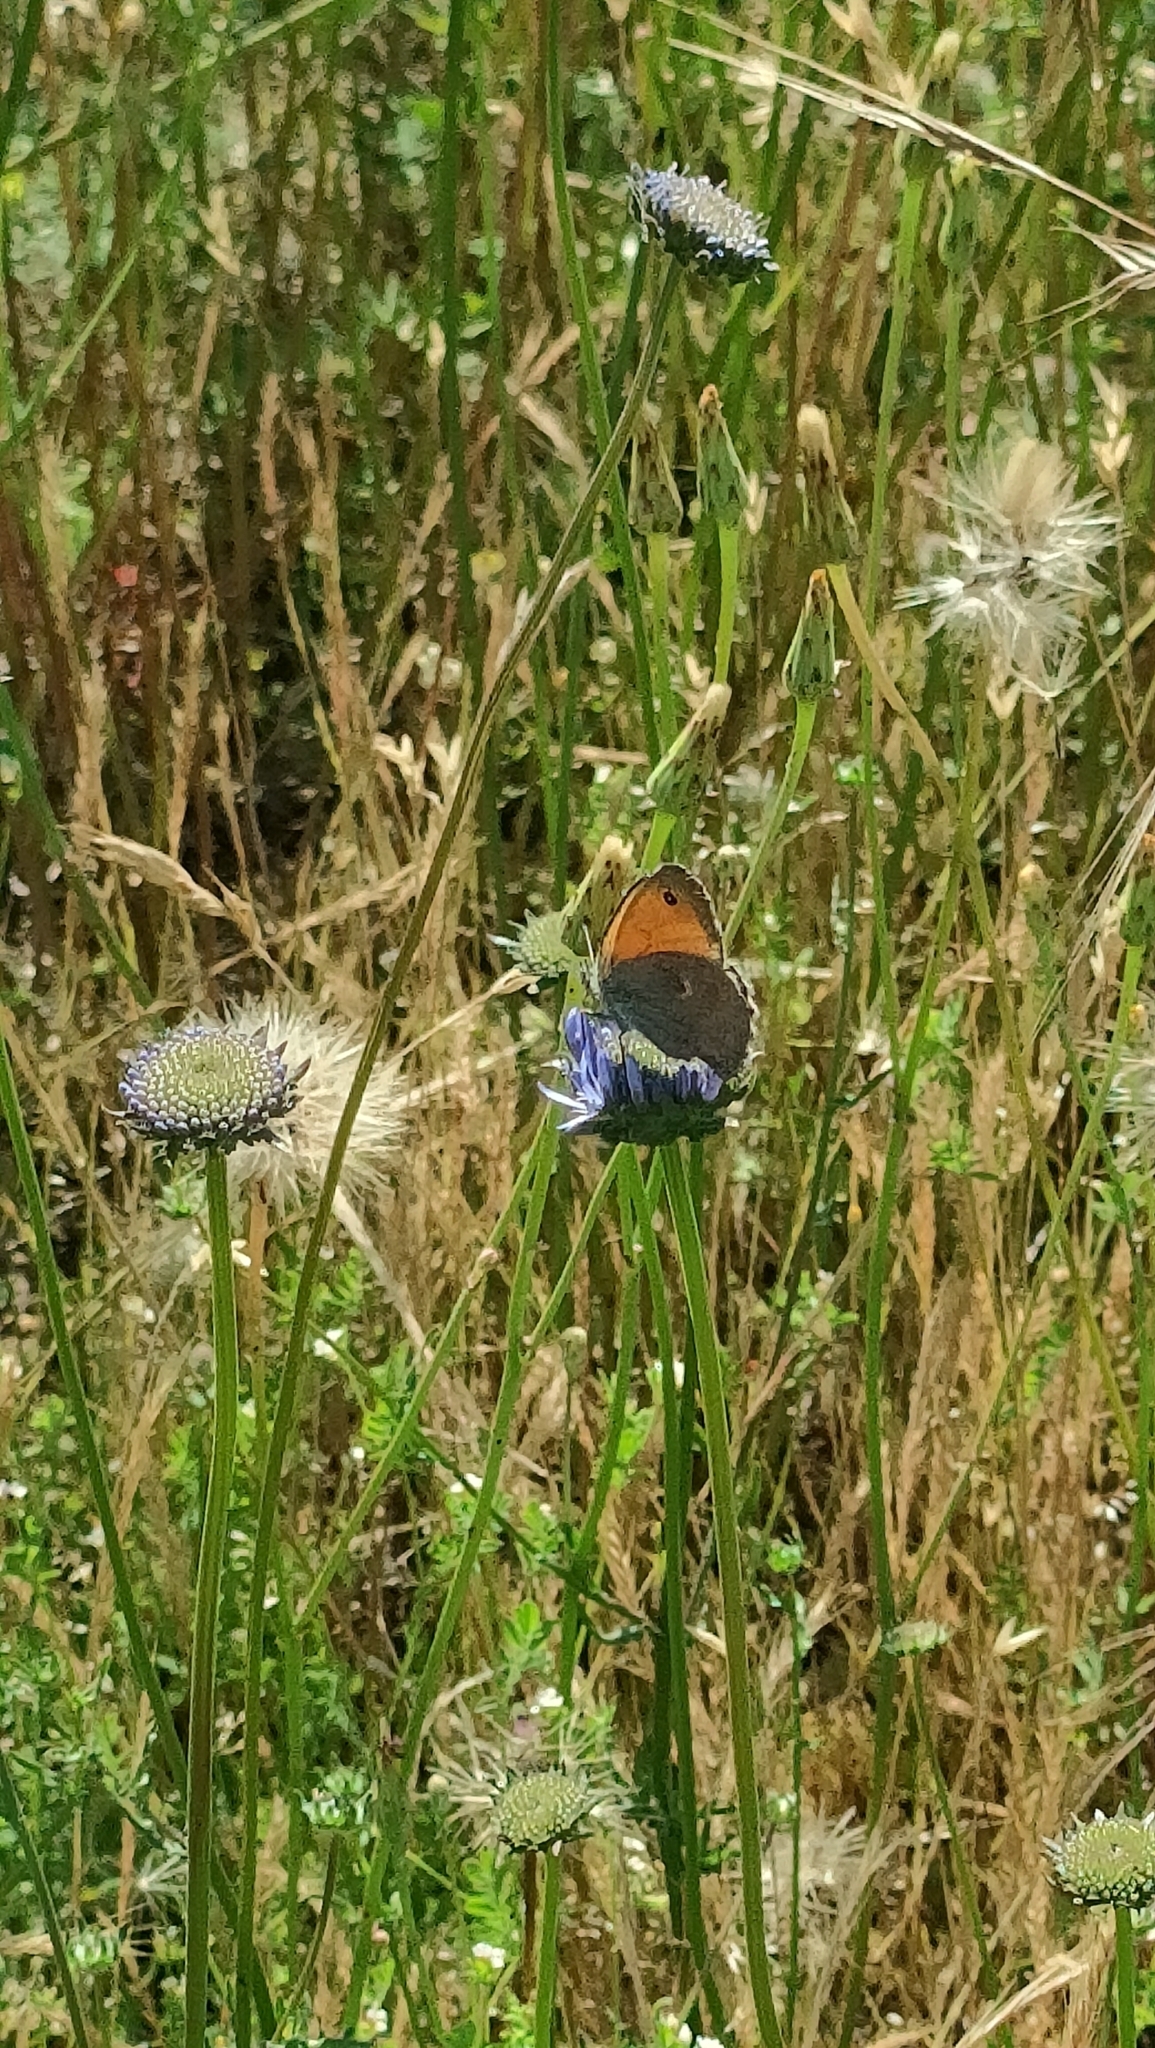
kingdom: Animalia
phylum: Arthropoda
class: Insecta
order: Lepidoptera
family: Nymphalidae
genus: Coenonympha
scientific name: Coenonympha pamphilus
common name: Small heath
